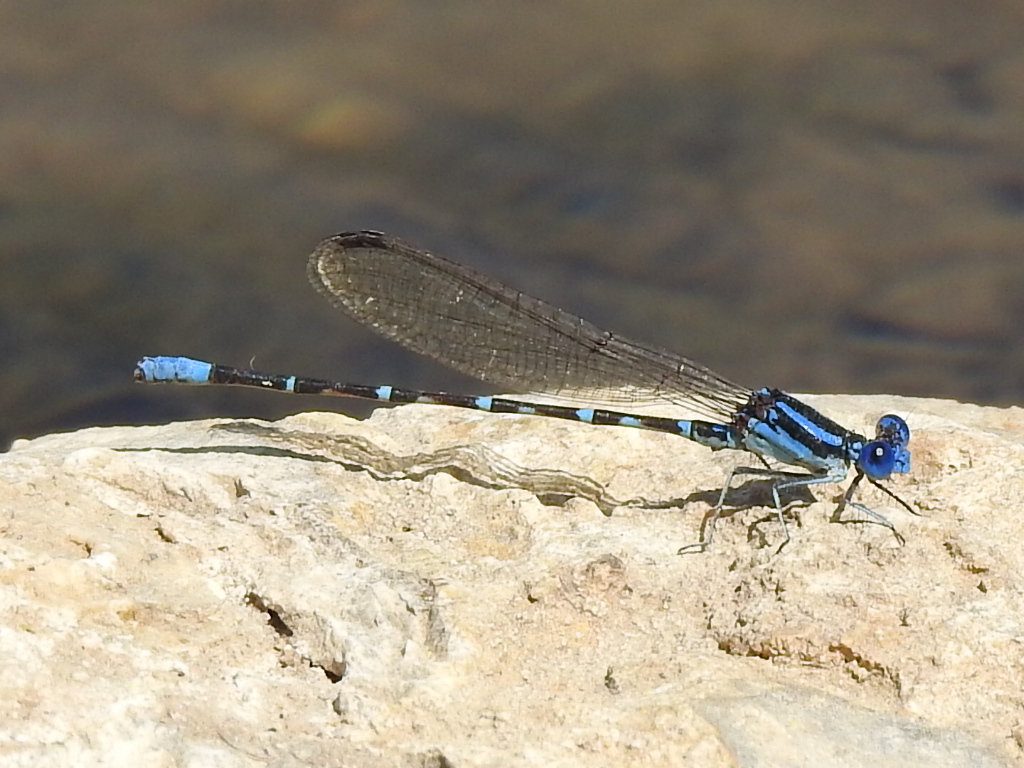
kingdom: Animalia
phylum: Arthropoda
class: Insecta
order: Odonata
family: Coenagrionidae
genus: Argia
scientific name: Argia sedula
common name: Blue-ringed dancer
